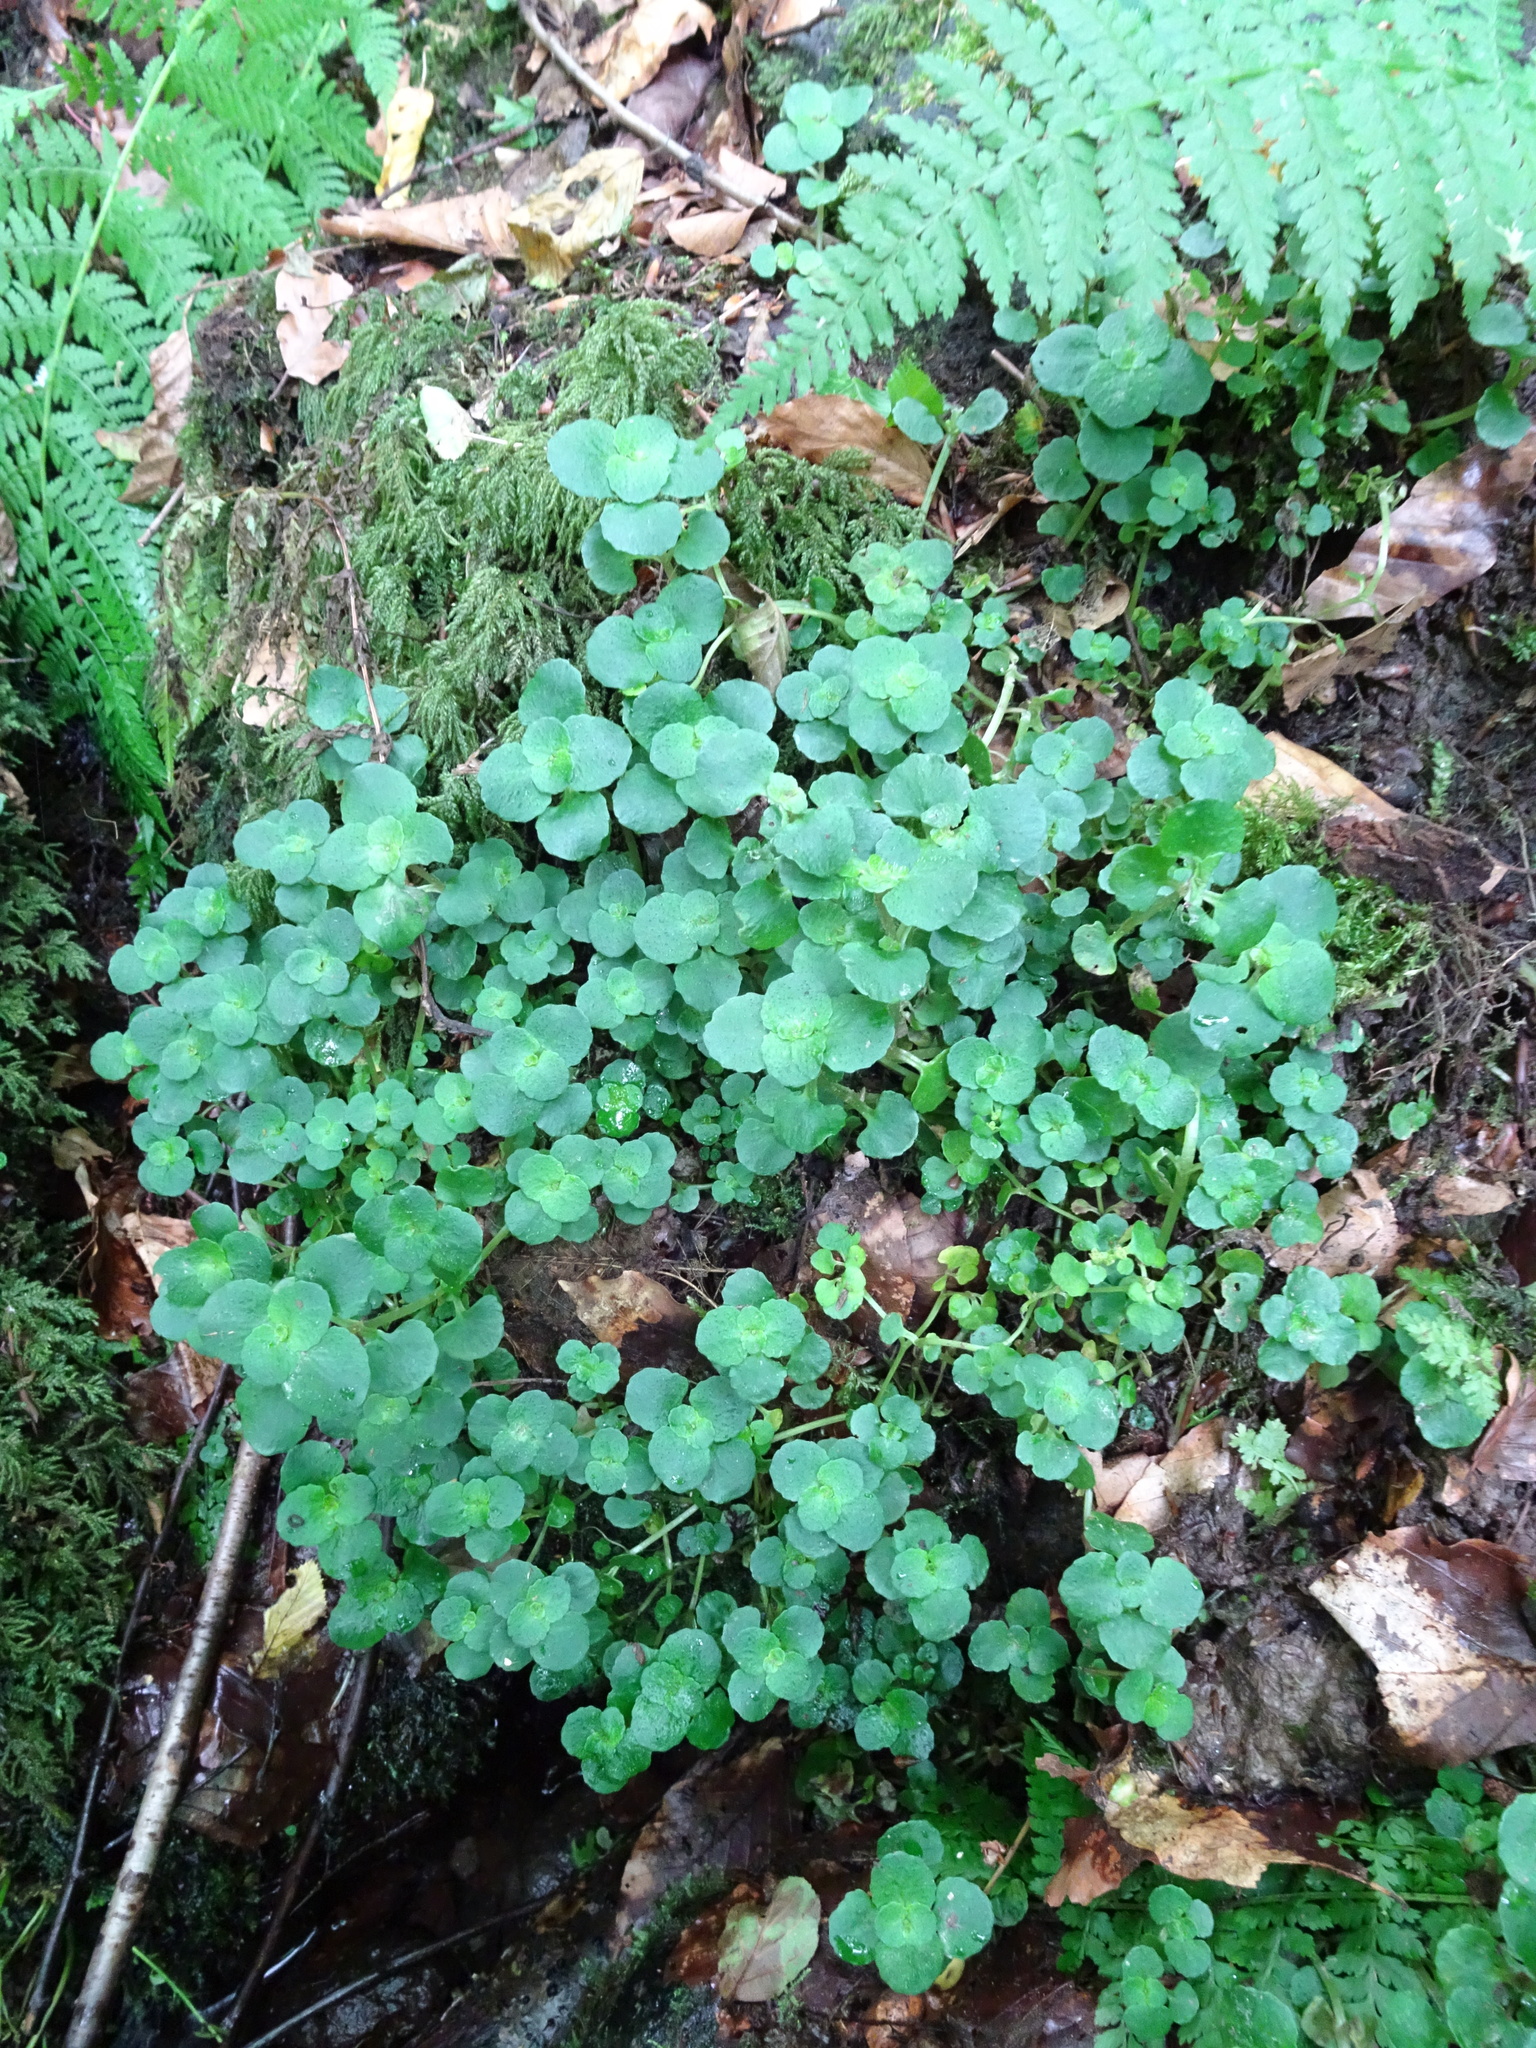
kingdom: Plantae
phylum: Tracheophyta
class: Magnoliopsida
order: Saxifragales
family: Saxifragaceae
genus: Chrysosplenium
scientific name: Chrysosplenium oppositifolium
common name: Opposite-leaved golden-saxifrage
